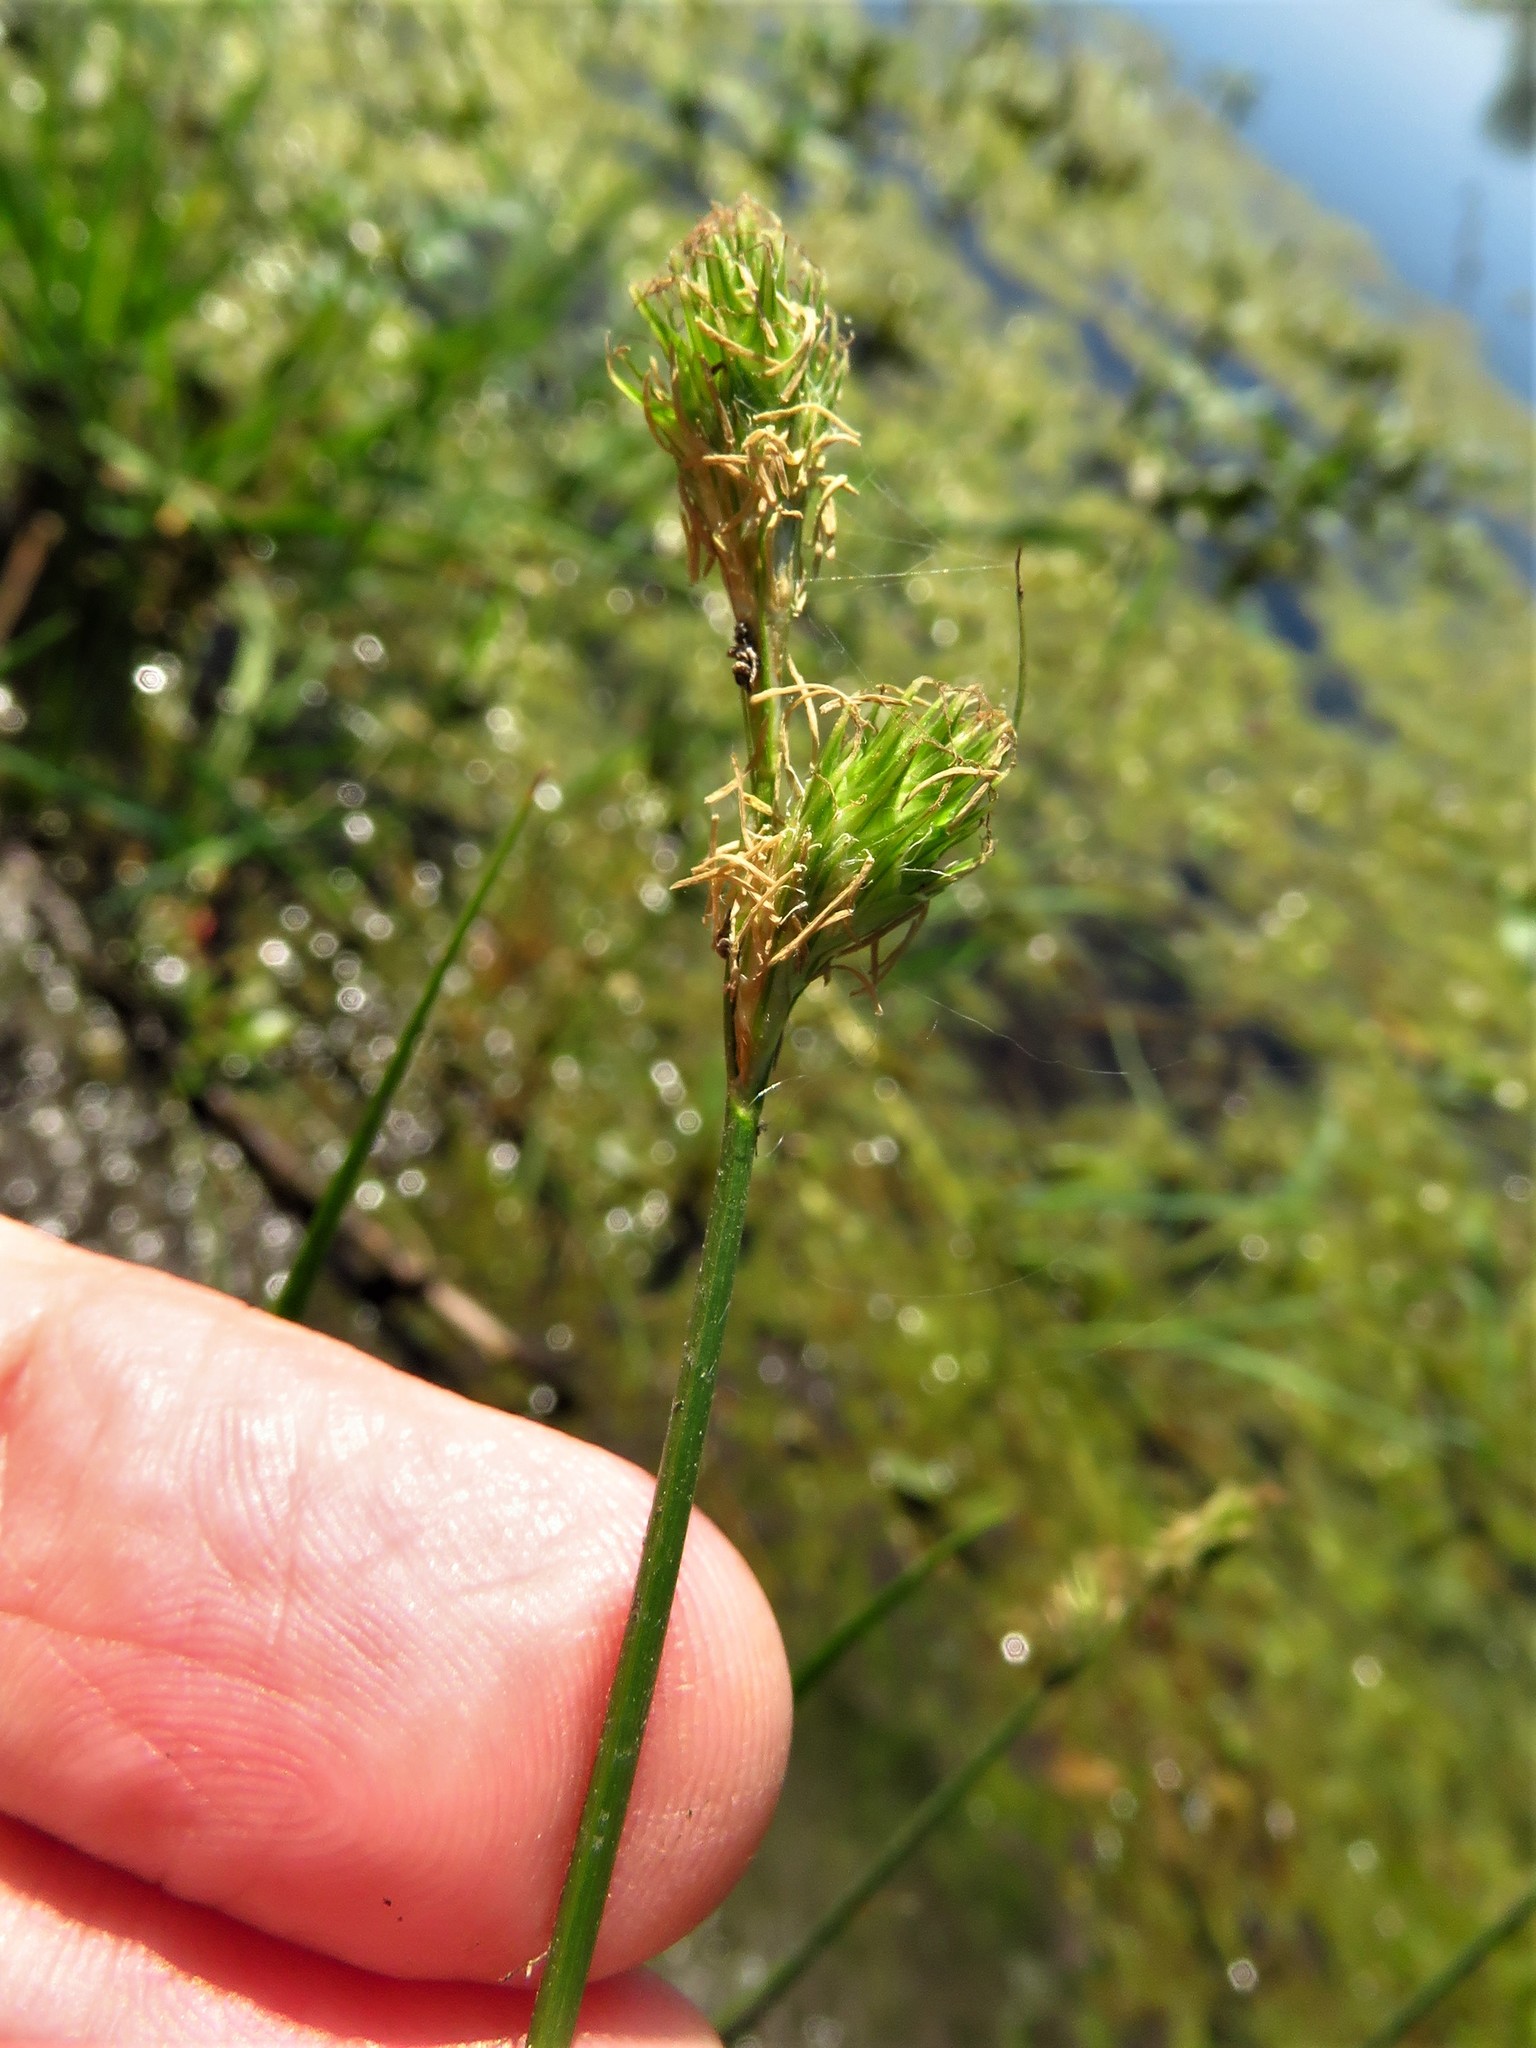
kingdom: Plantae
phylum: Tracheophyta
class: Liliopsida
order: Poales
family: Cyperaceae
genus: Carex
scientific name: Carex tetrastachya
